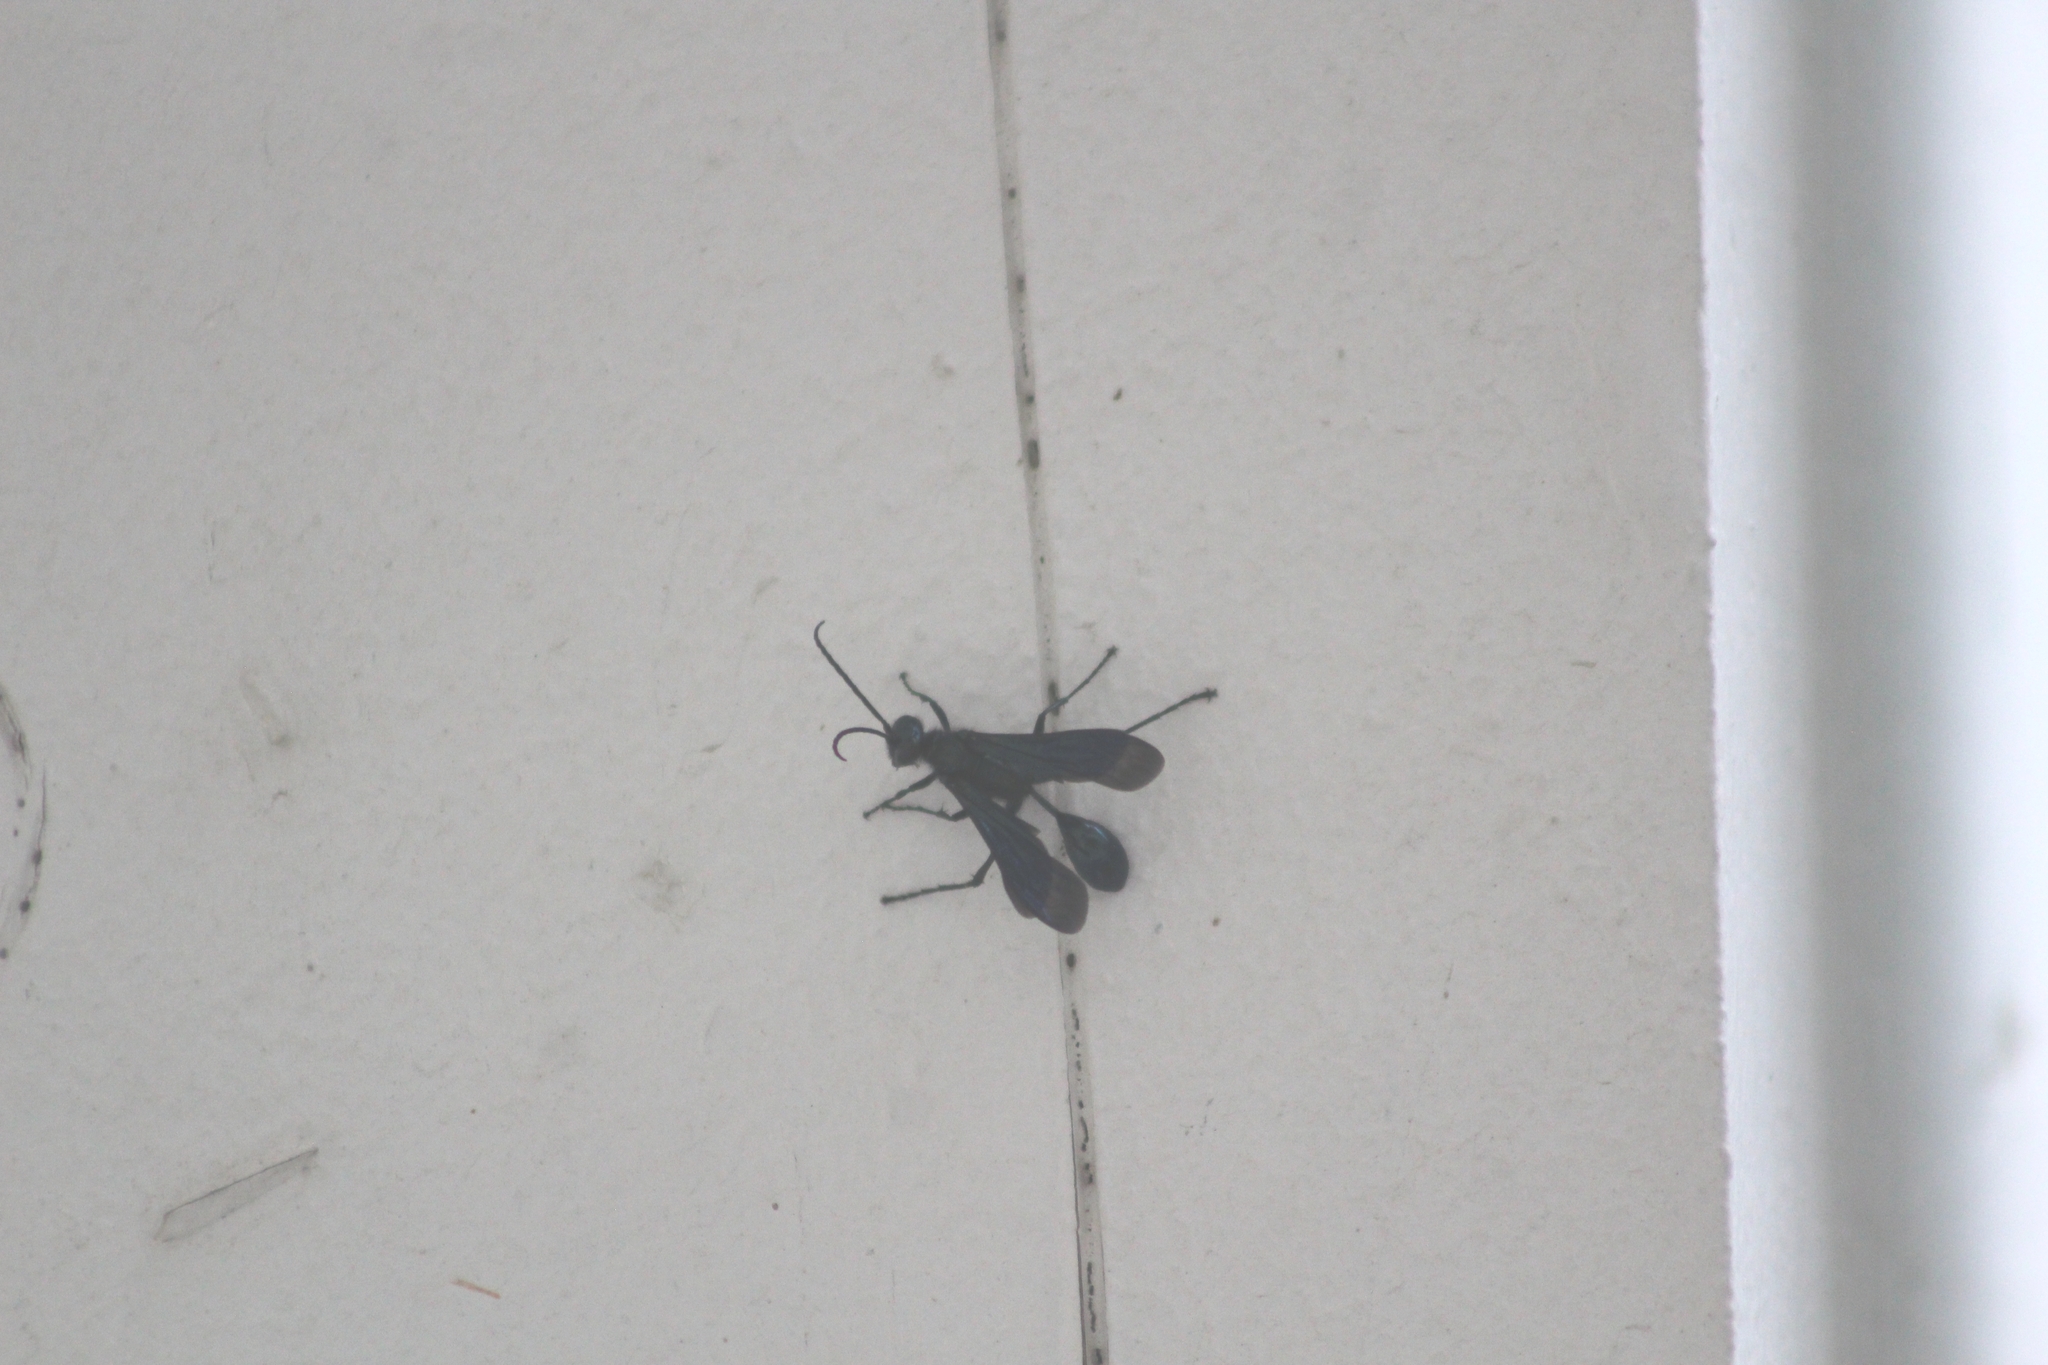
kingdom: Animalia
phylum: Arthropoda
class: Insecta
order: Hymenoptera
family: Sphecidae
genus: Chalybion
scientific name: Chalybion californicum
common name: Mud dauber
